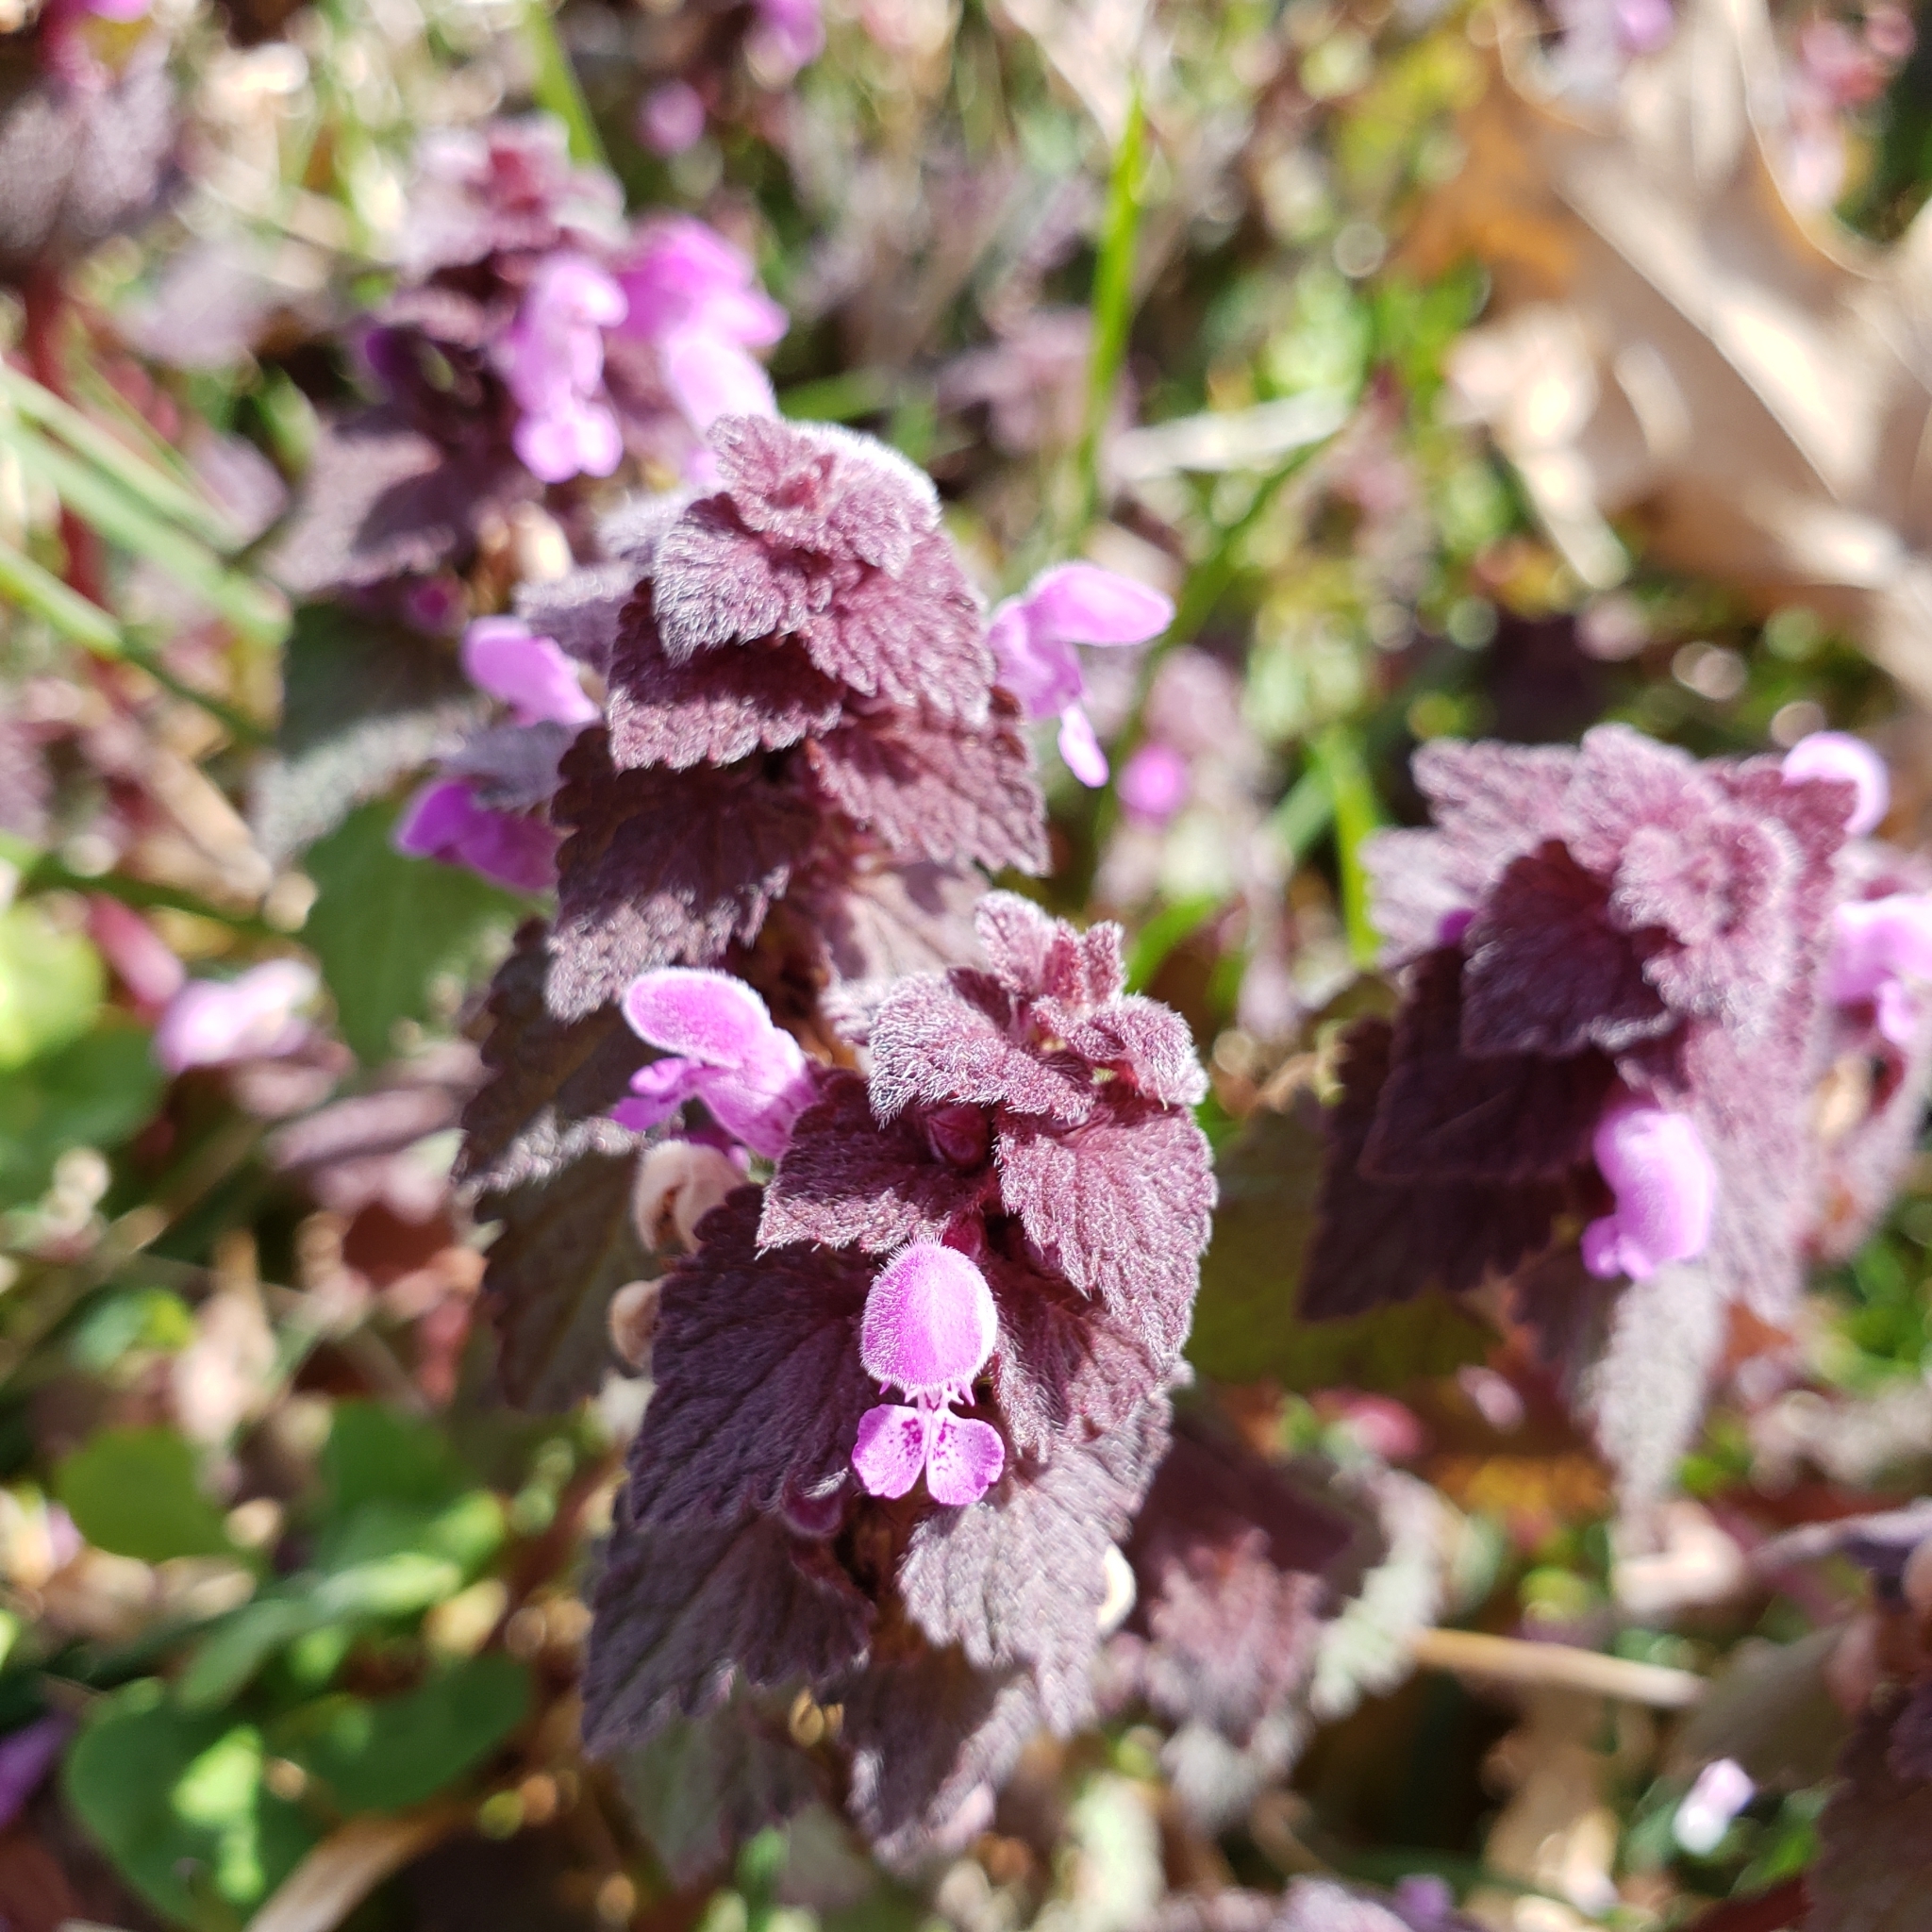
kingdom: Plantae
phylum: Tracheophyta
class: Magnoliopsida
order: Lamiales
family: Lamiaceae
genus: Lamium
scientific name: Lamium purpureum
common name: Red dead-nettle
